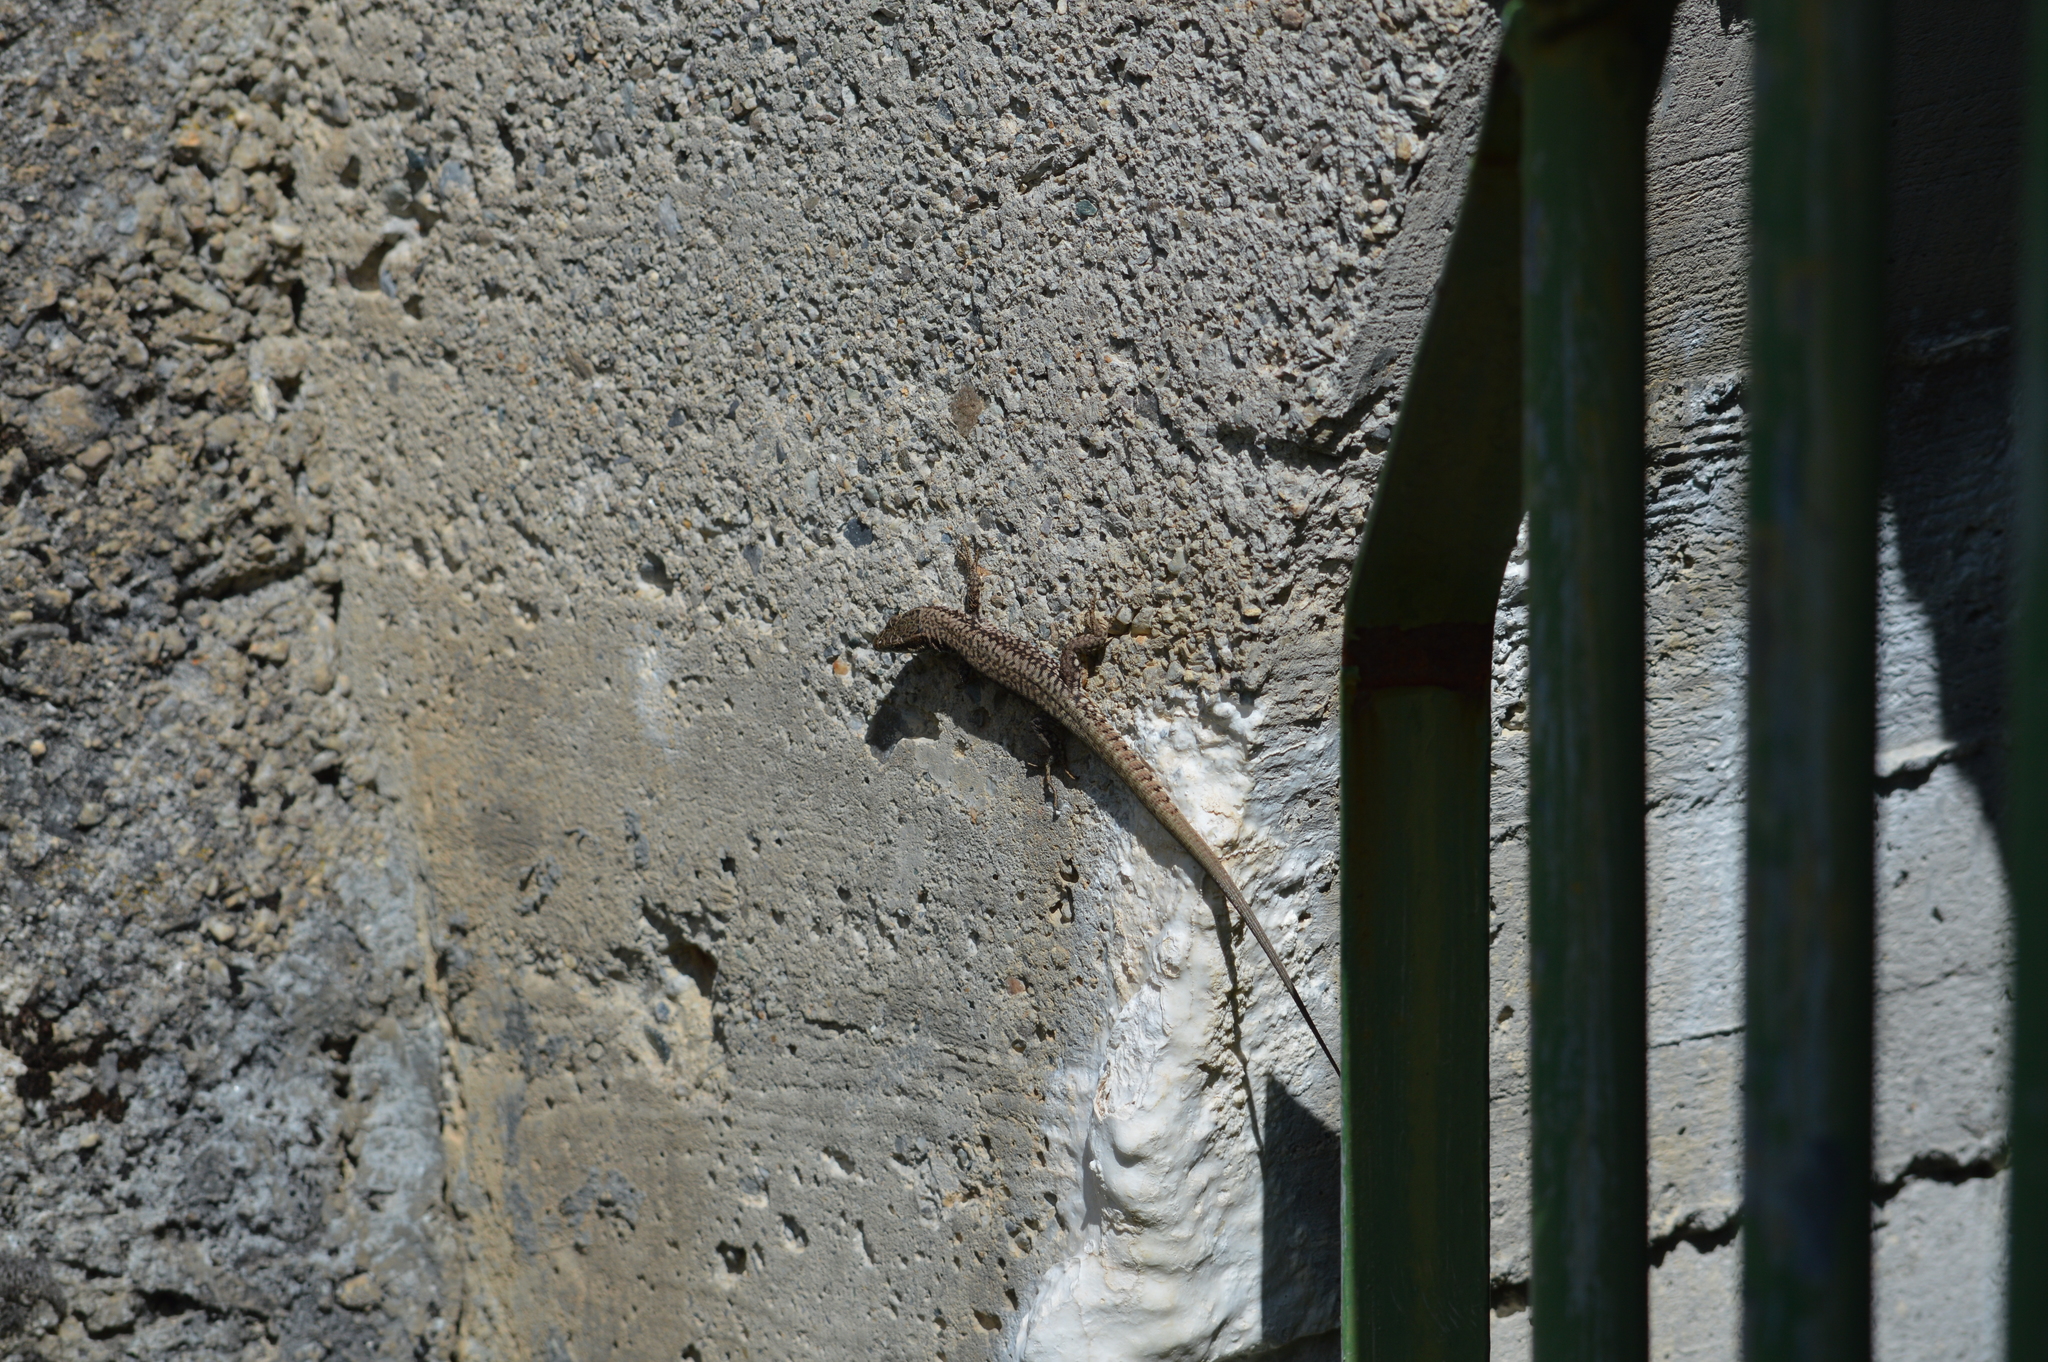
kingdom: Animalia
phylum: Chordata
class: Squamata
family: Lacertidae
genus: Podarcis
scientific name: Podarcis muralis
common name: Common wall lizard
